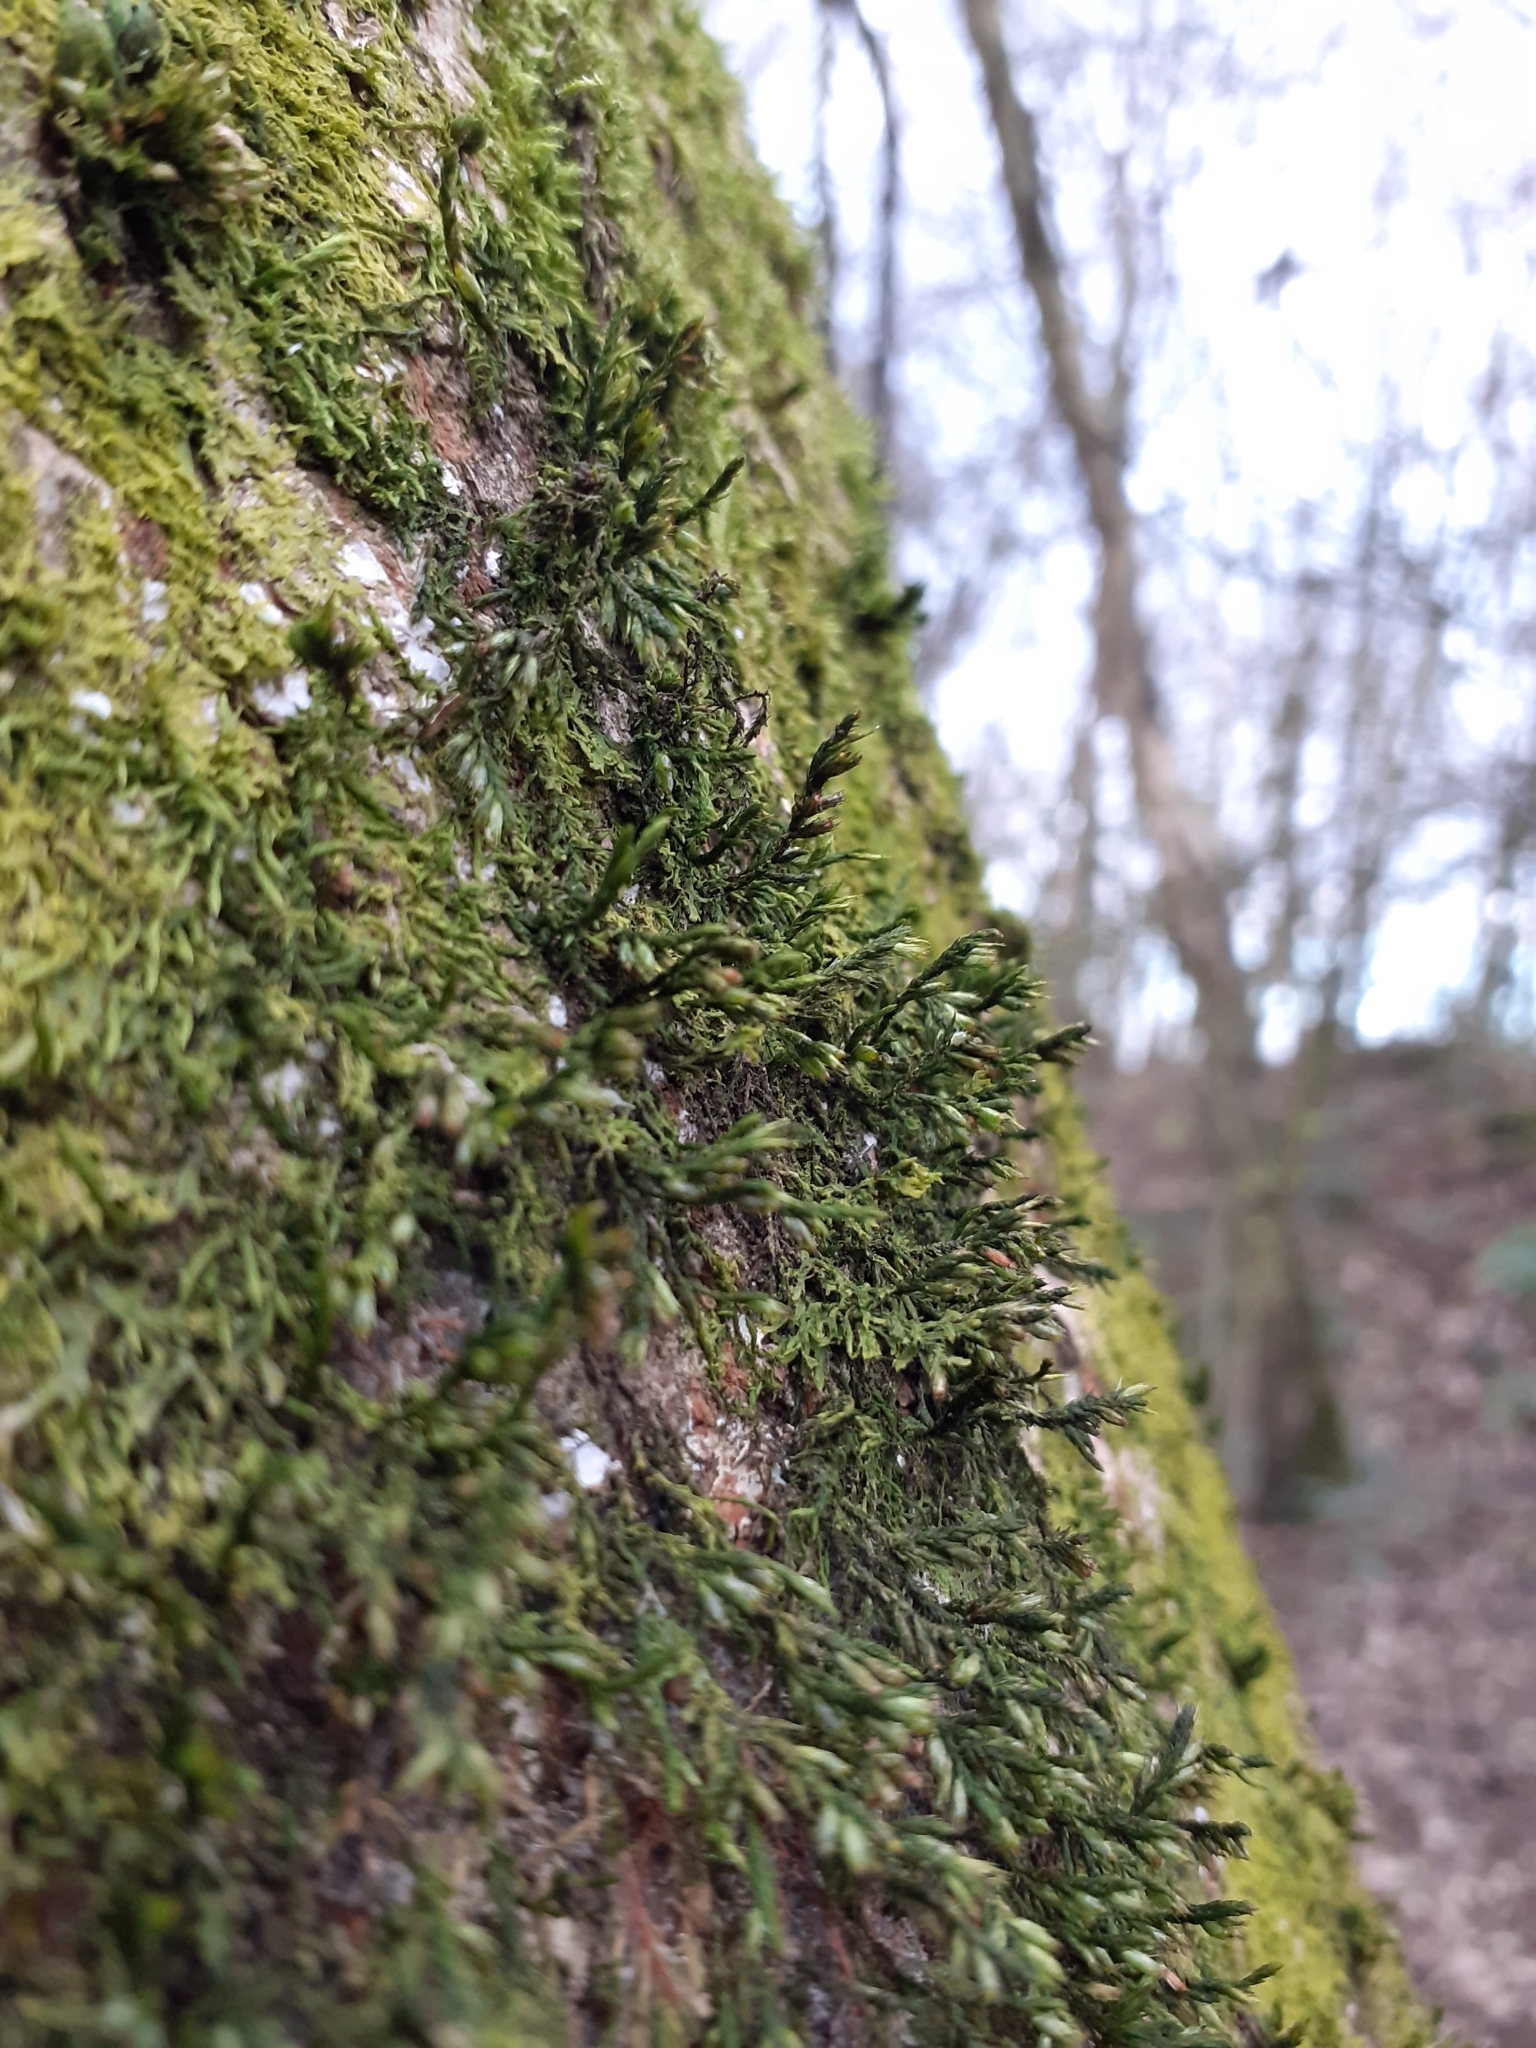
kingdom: Plantae
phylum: Bryophyta
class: Bryopsida
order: Hypnales
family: Cryphaeaceae
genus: Cryphaea
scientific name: Cryphaea heteromalla
